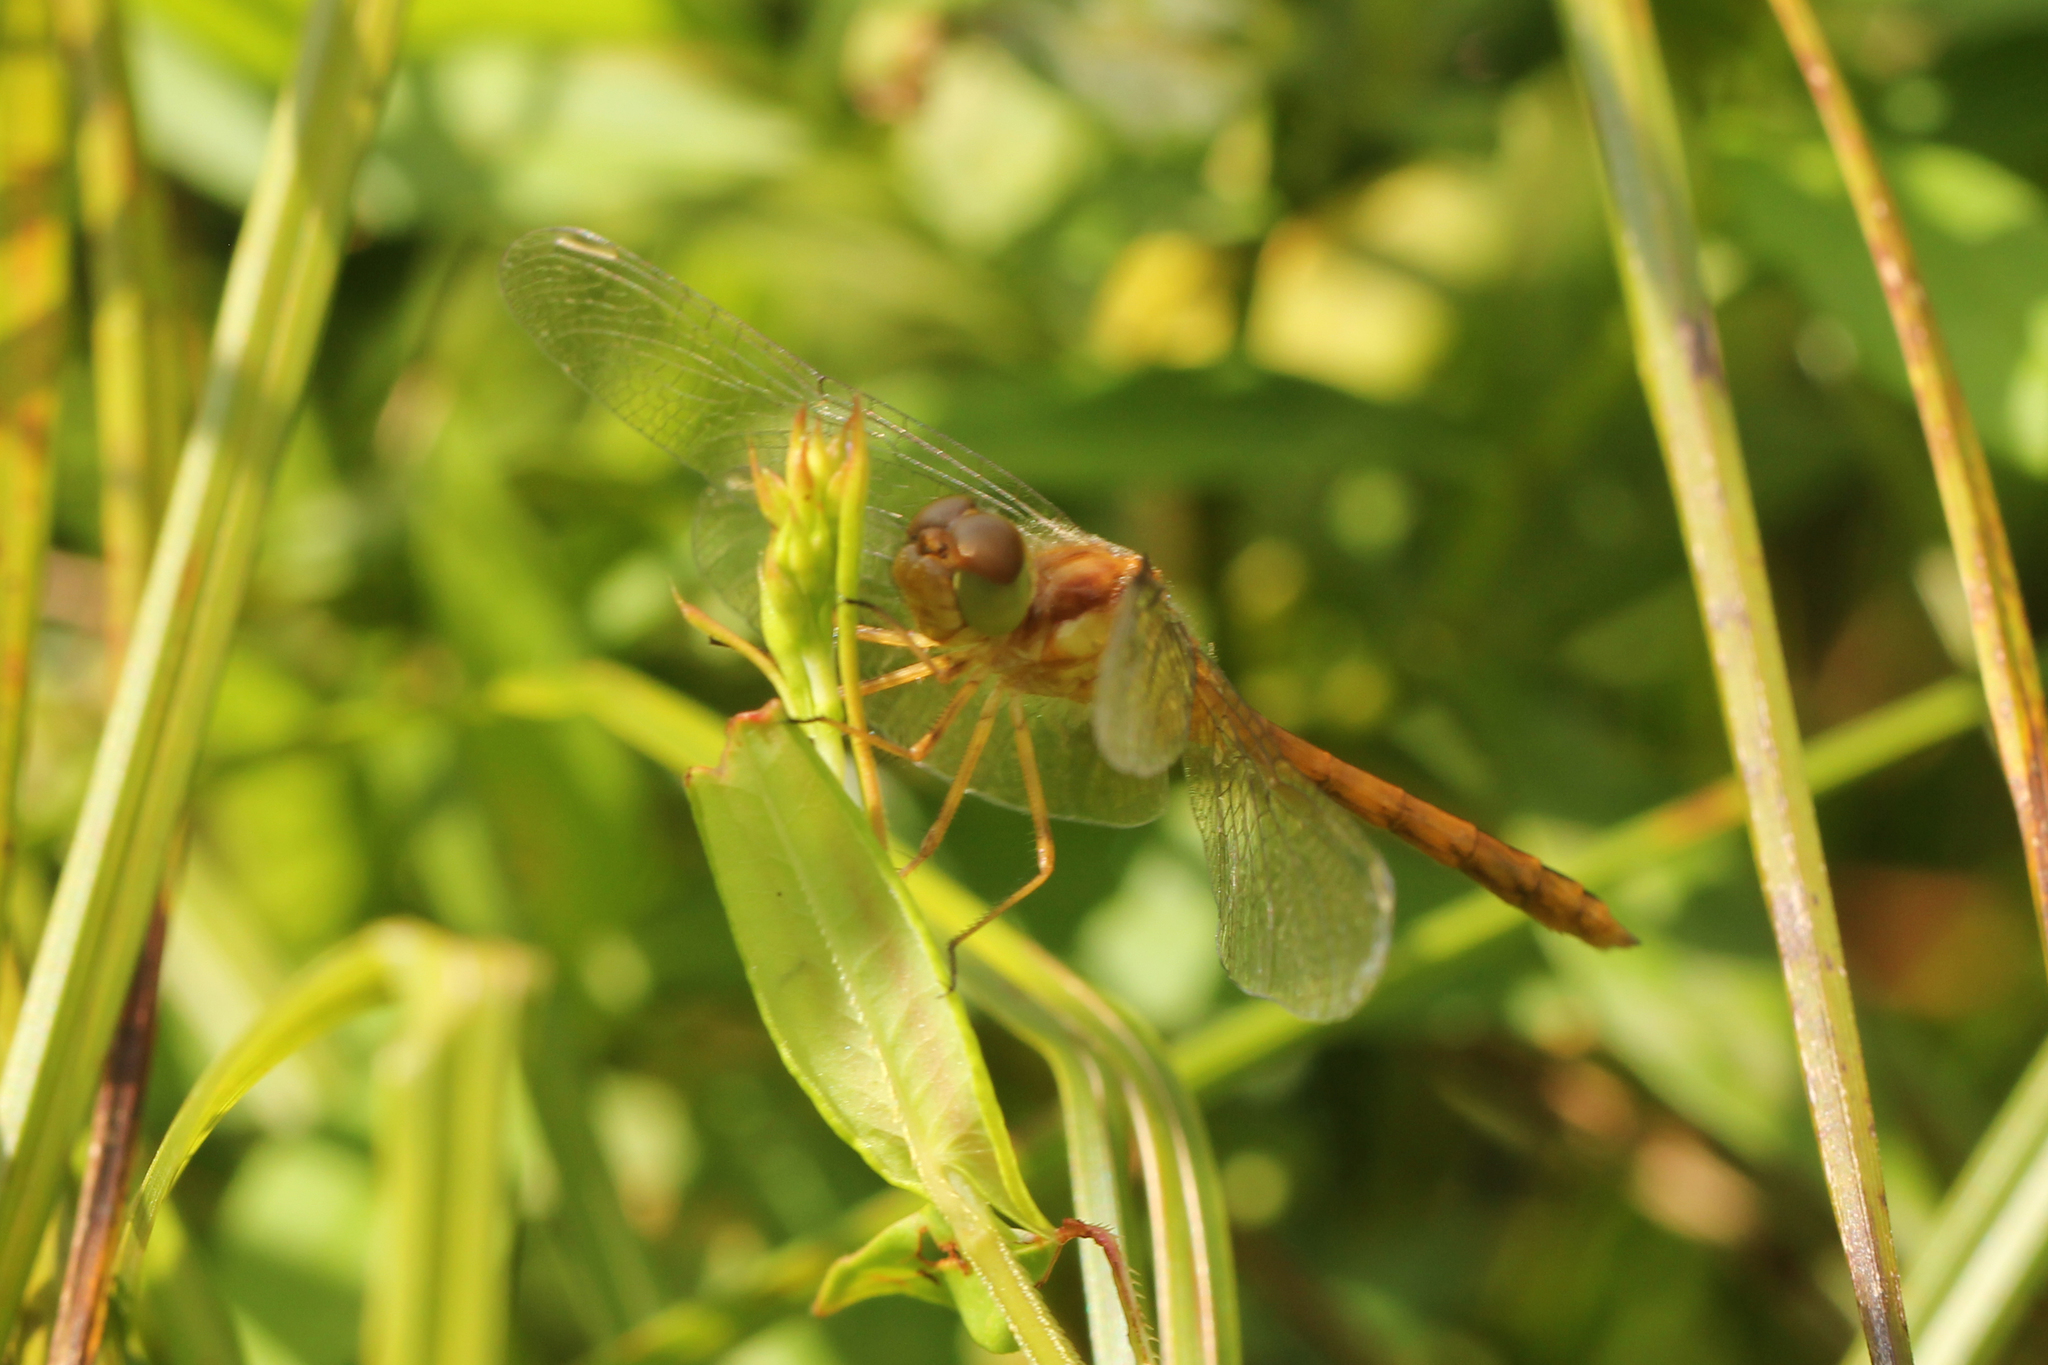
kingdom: Animalia
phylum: Arthropoda
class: Insecta
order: Odonata
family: Libellulidae
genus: Sympetrum
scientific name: Sympetrum vicinum
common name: Autumn meadowhawk
